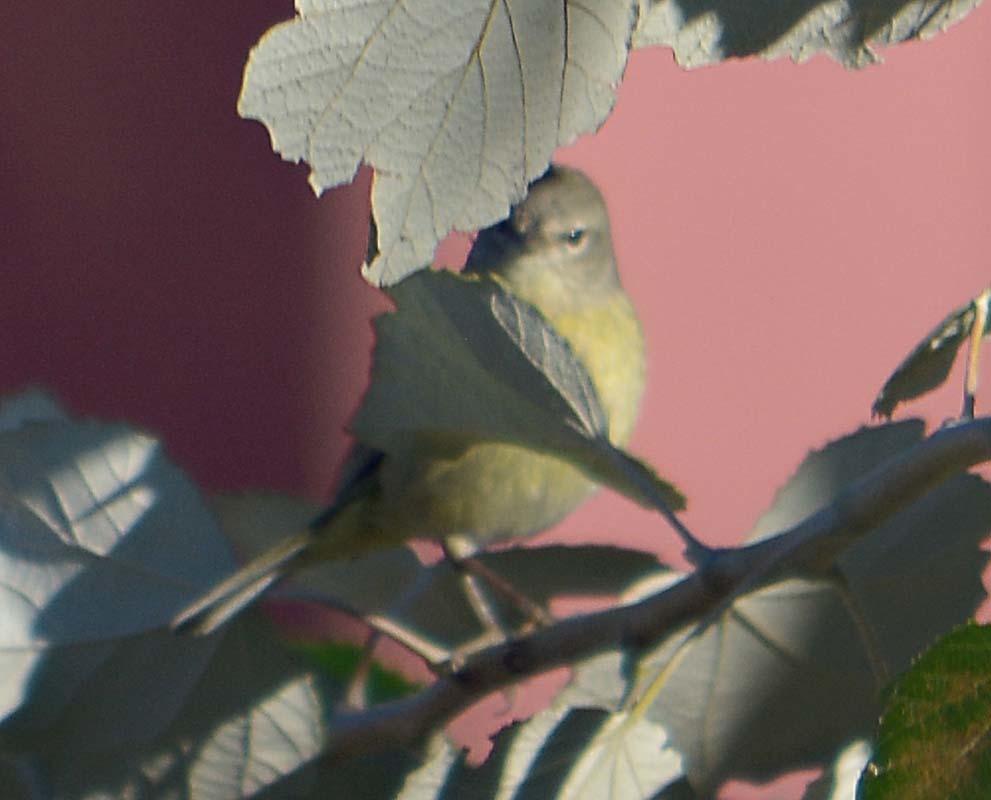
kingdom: Animalia
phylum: Chordata
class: Aves
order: Passeriformes
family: Parulidae
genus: Leiothlypis
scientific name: Leiothlypis celata
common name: Orange-crowned warbler
